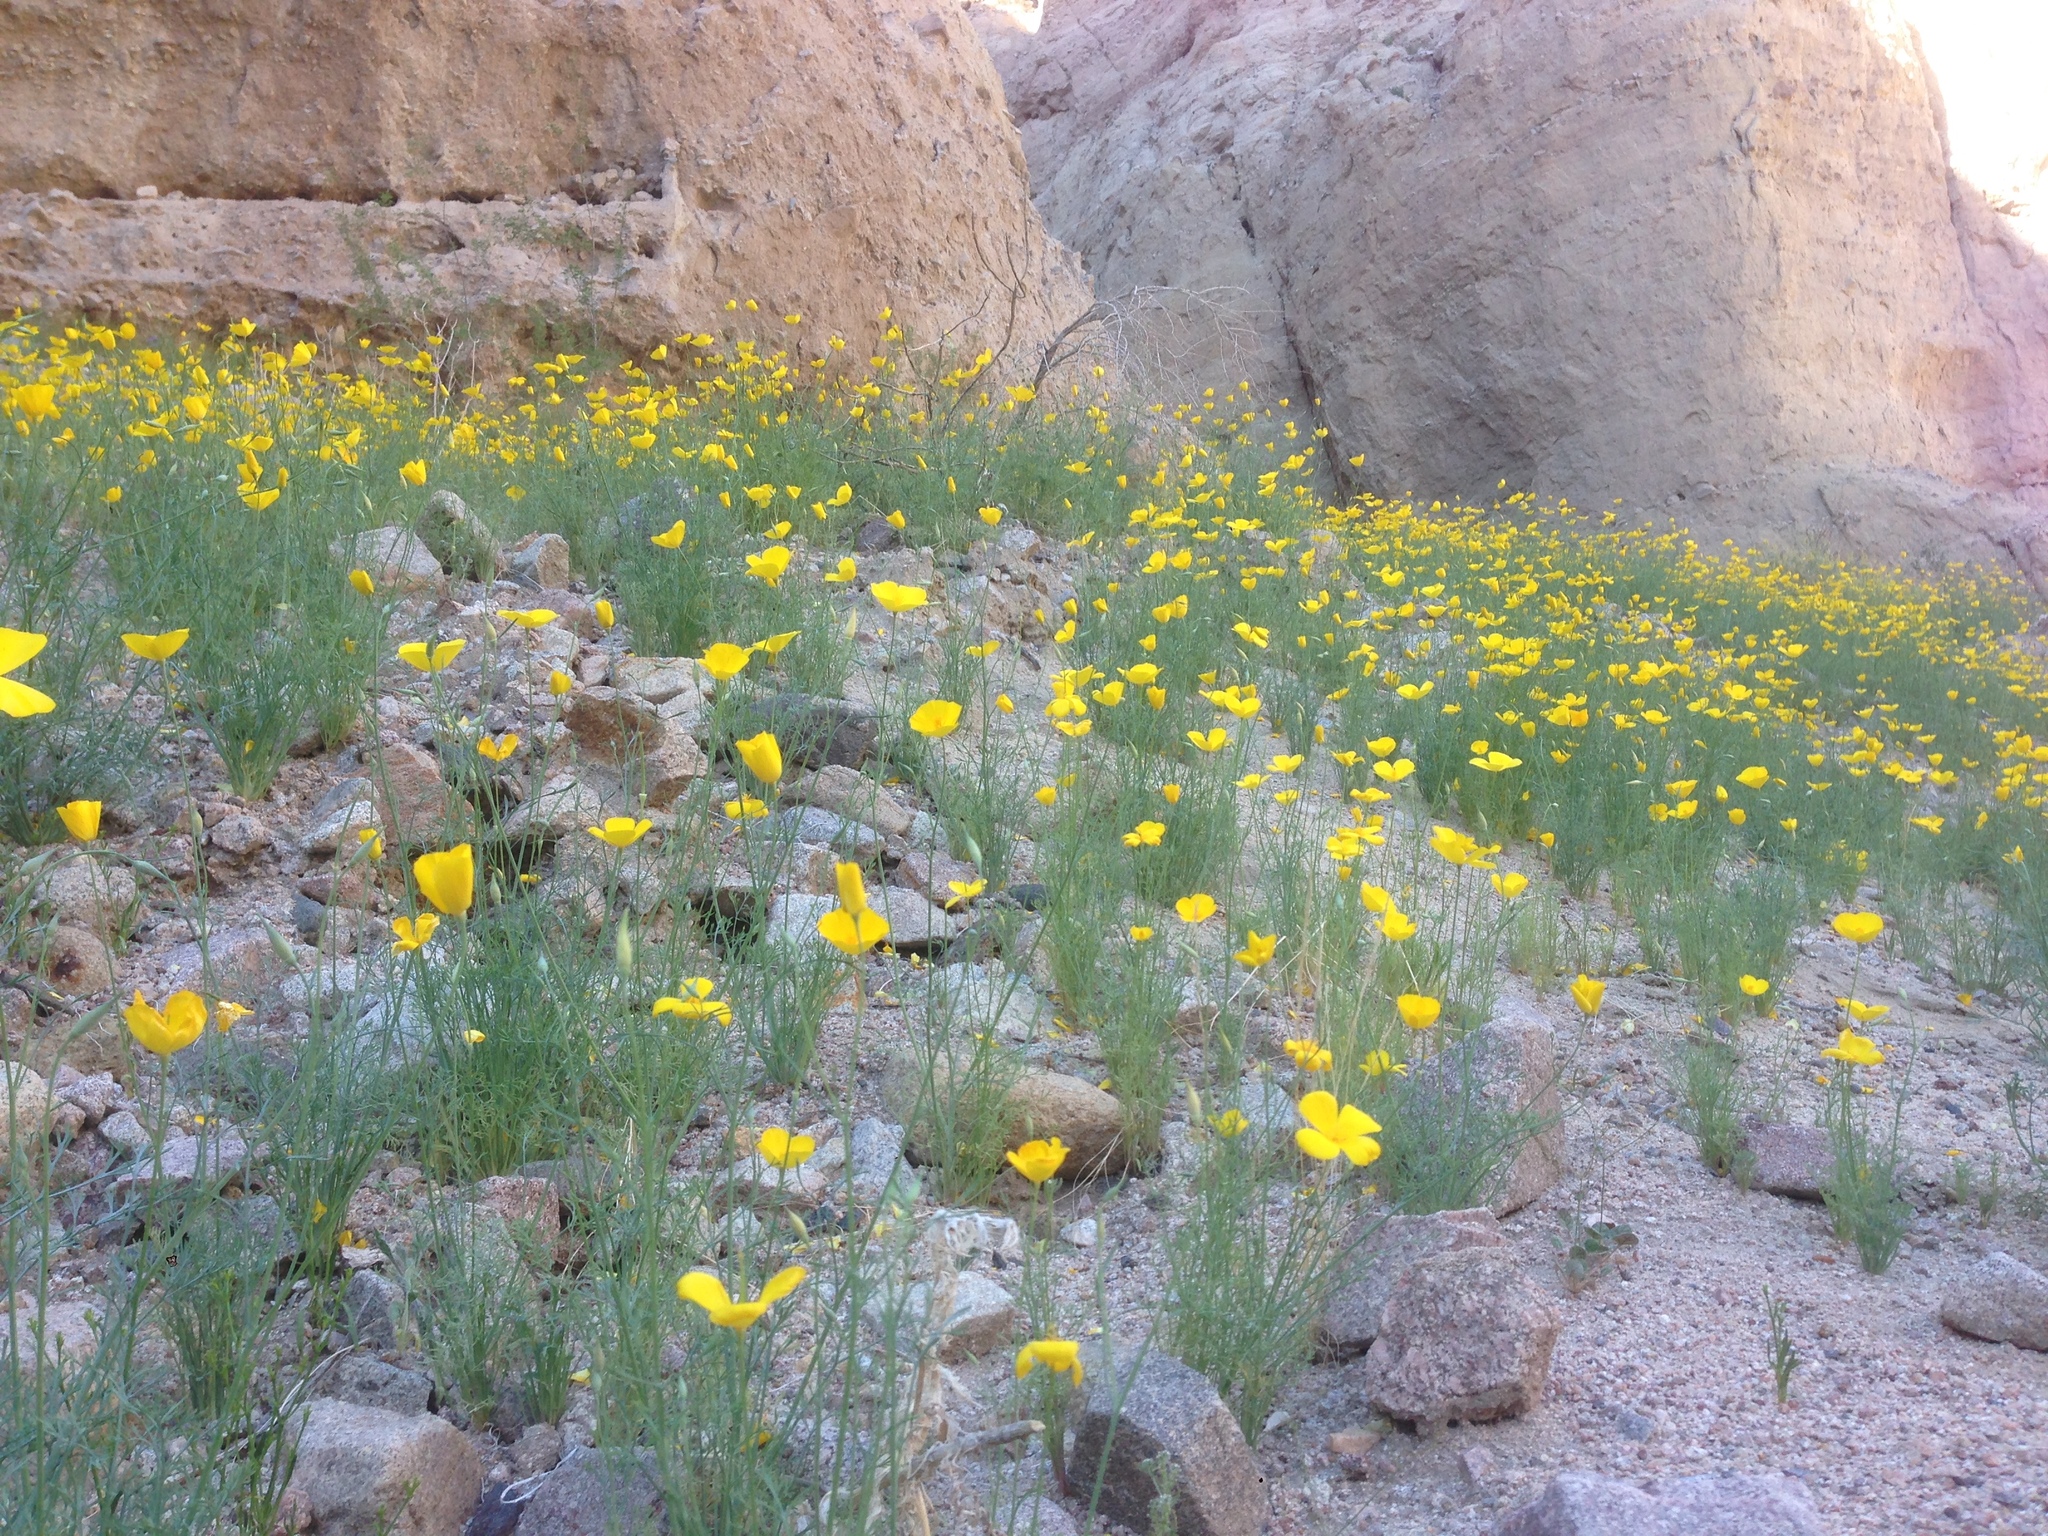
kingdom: Plantae
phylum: Tracheophyta
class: Magnoliopsida
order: Ranunculales
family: Papaveraceae
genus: Eschscholzia
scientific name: Eschscholzia papastillii
